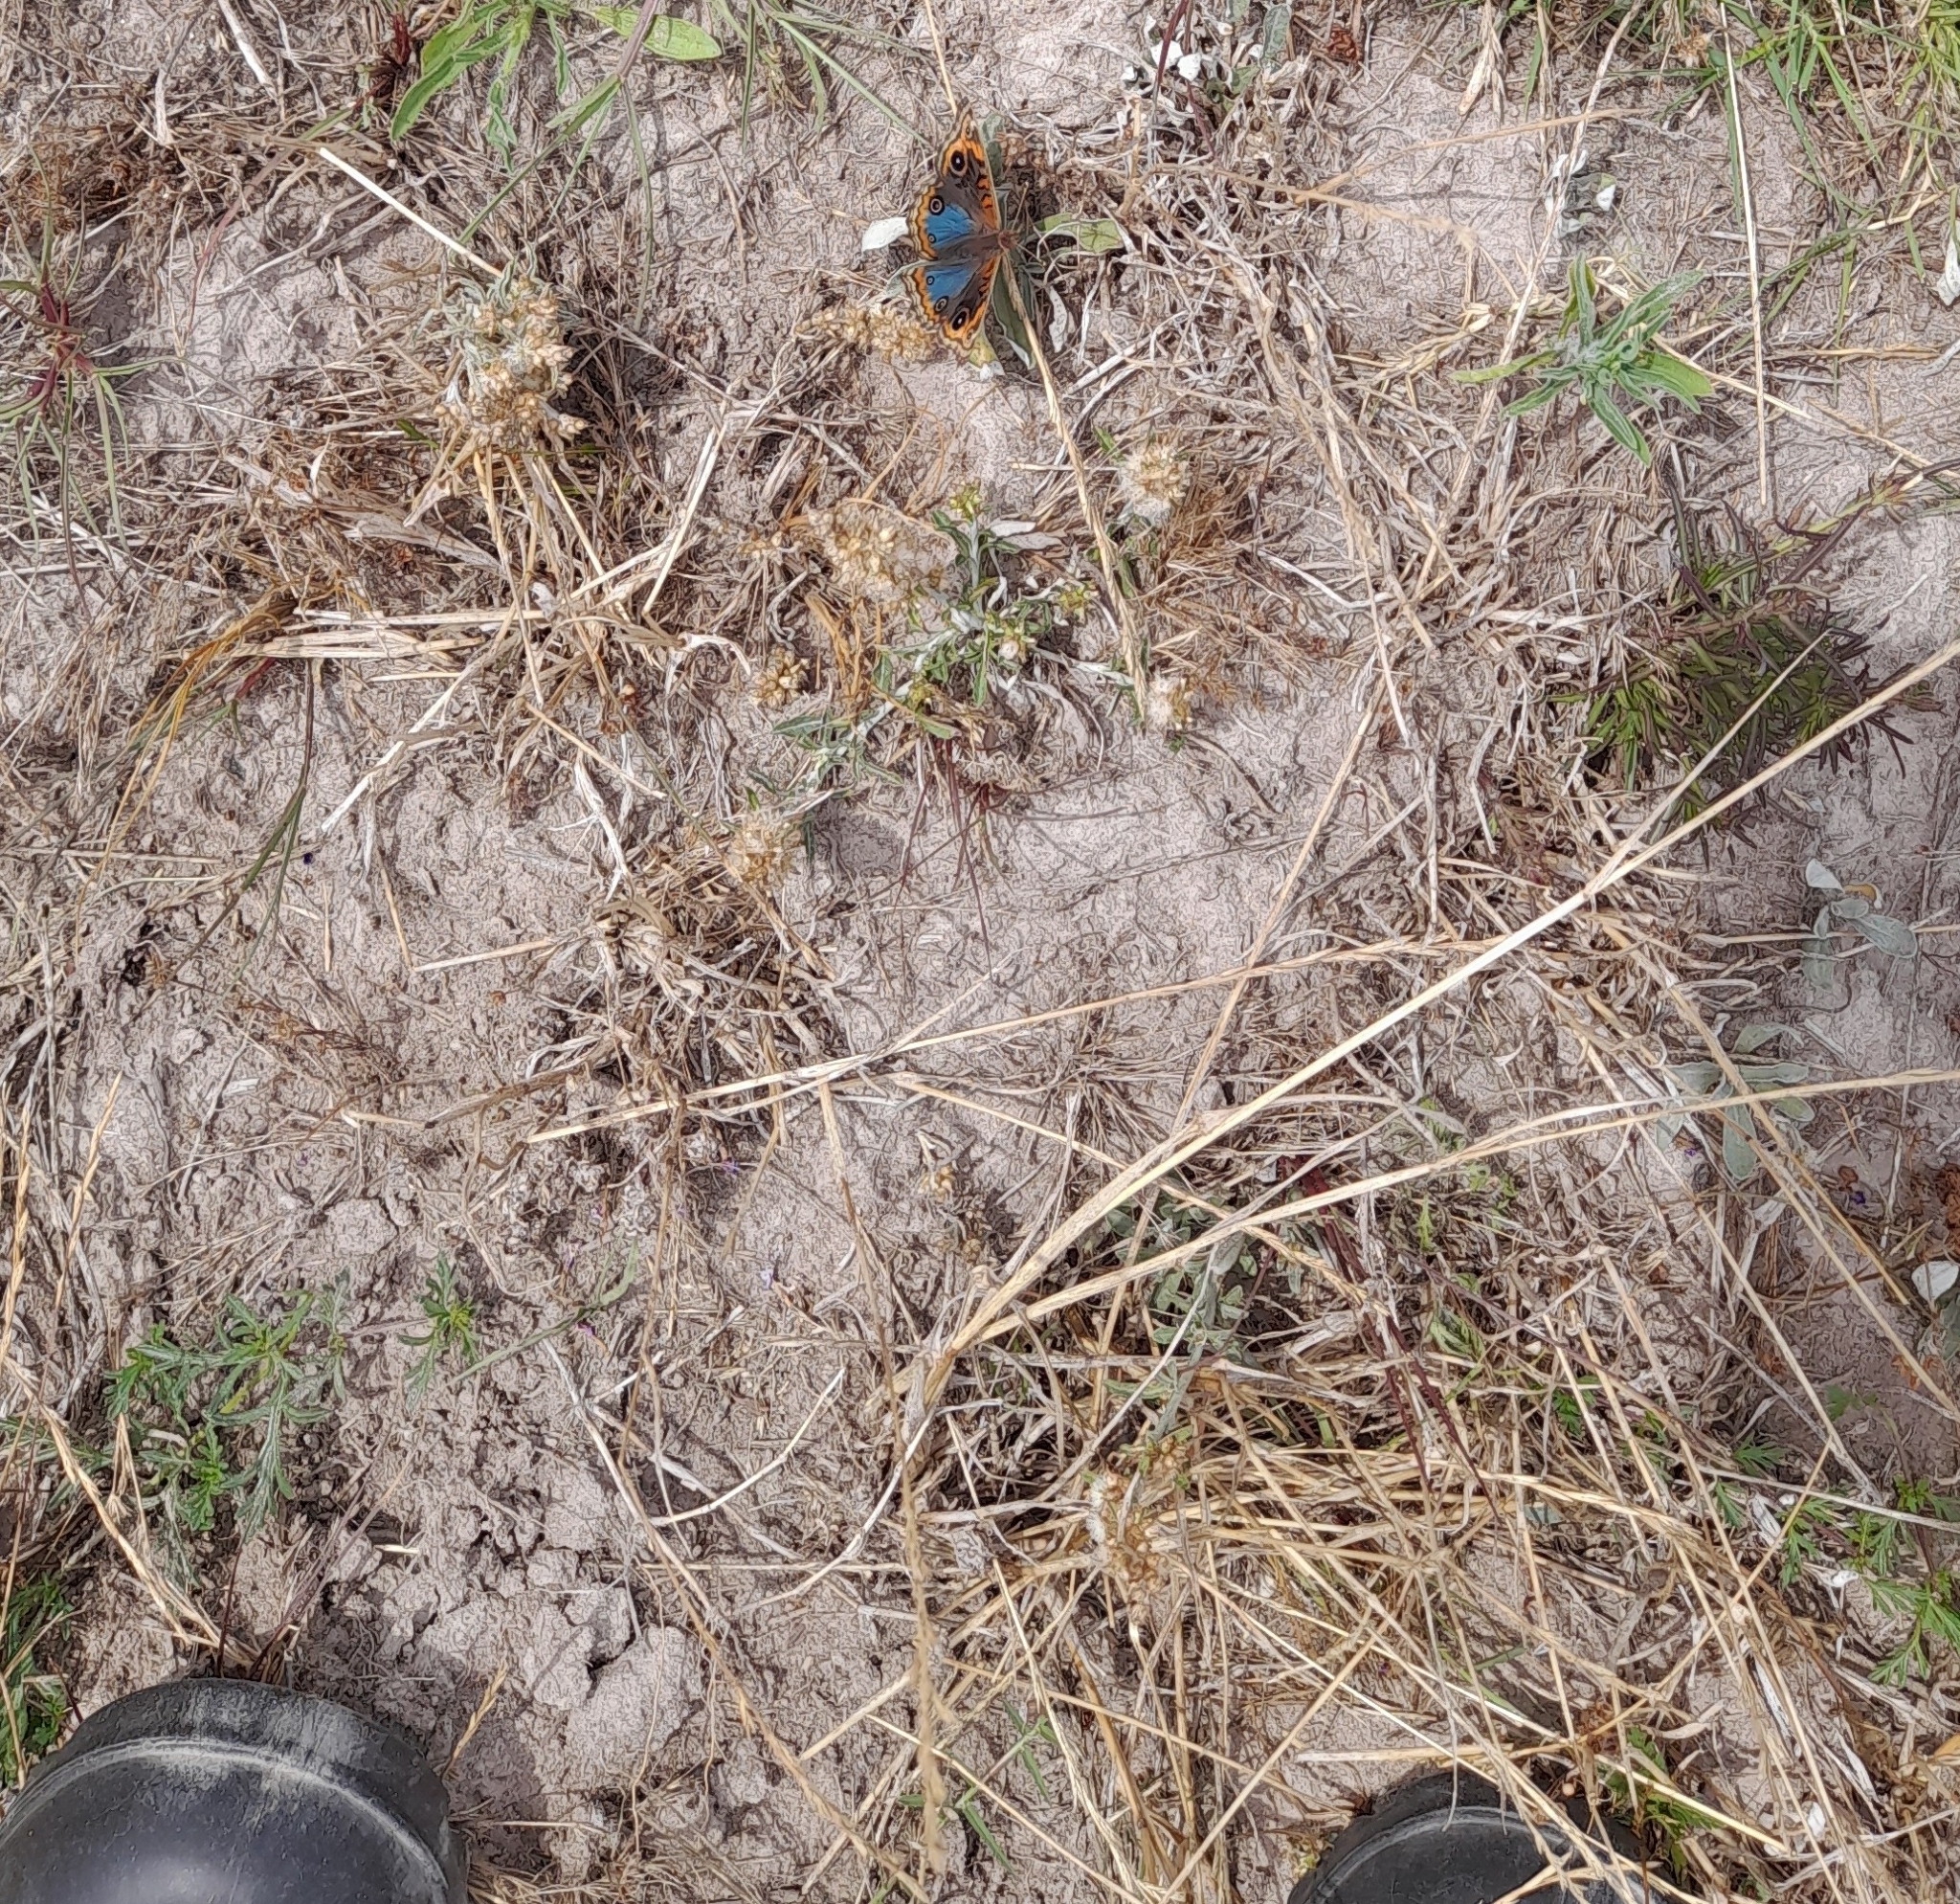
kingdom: Animalia
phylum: Arthropoda
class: Insecta
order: Lepidoptera
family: Nymphalidae
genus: Junonia
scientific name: Junonia lavinia
